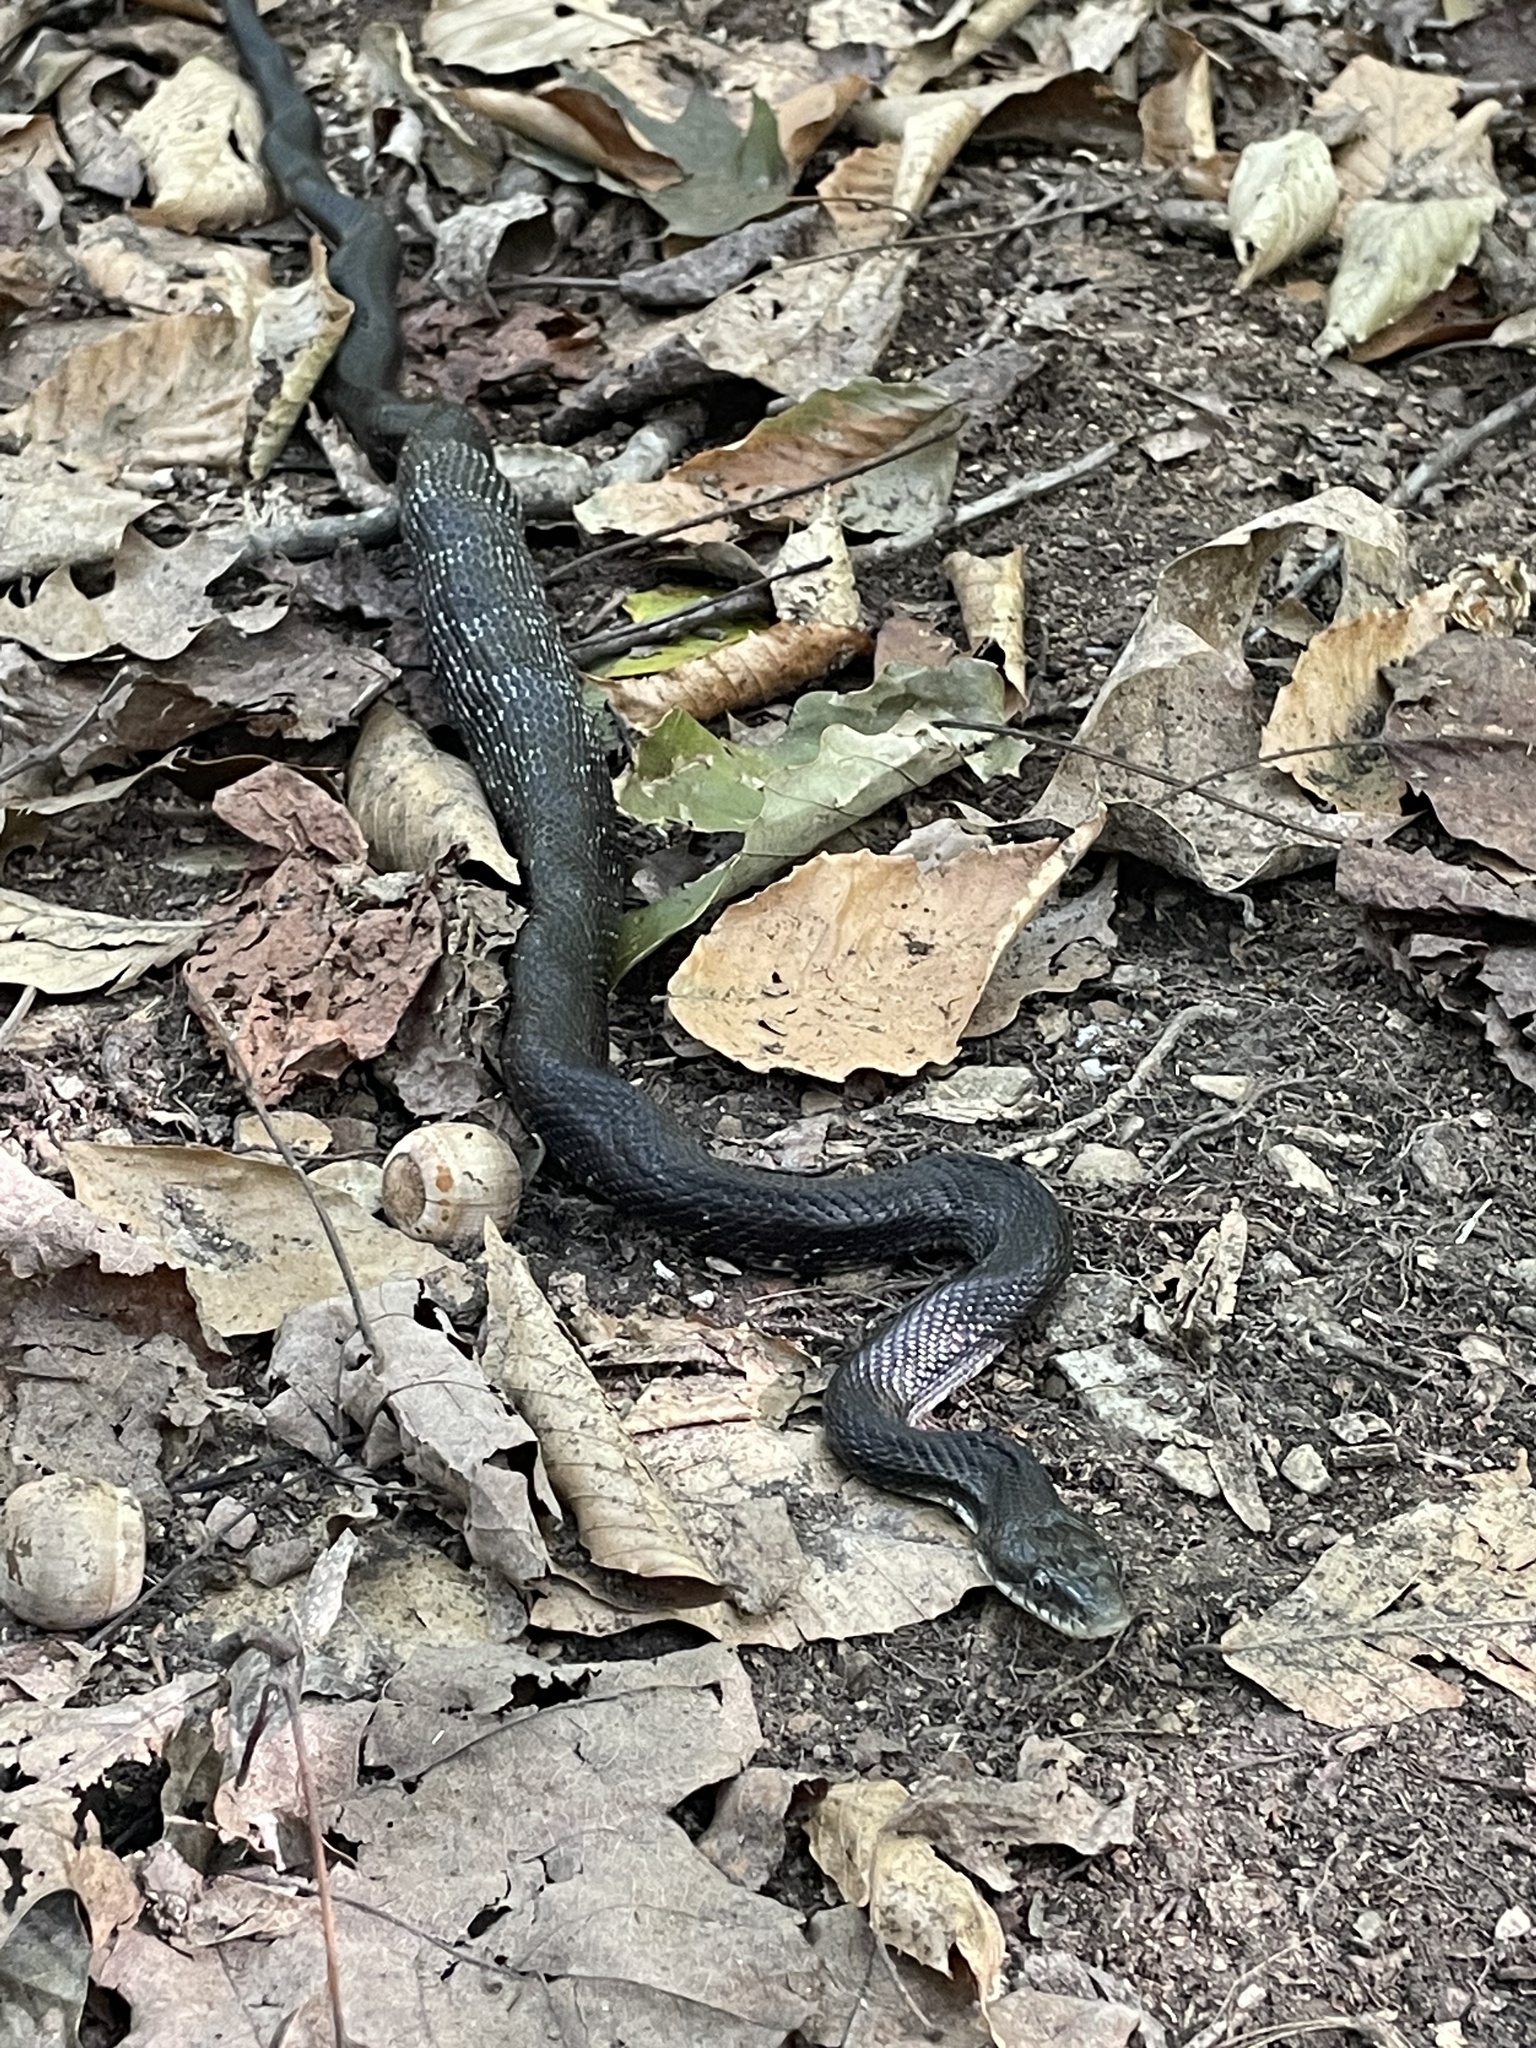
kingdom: Animalia
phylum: Chordata
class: Squamata
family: Colubridae
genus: Pantherophis
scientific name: Pantherophis
